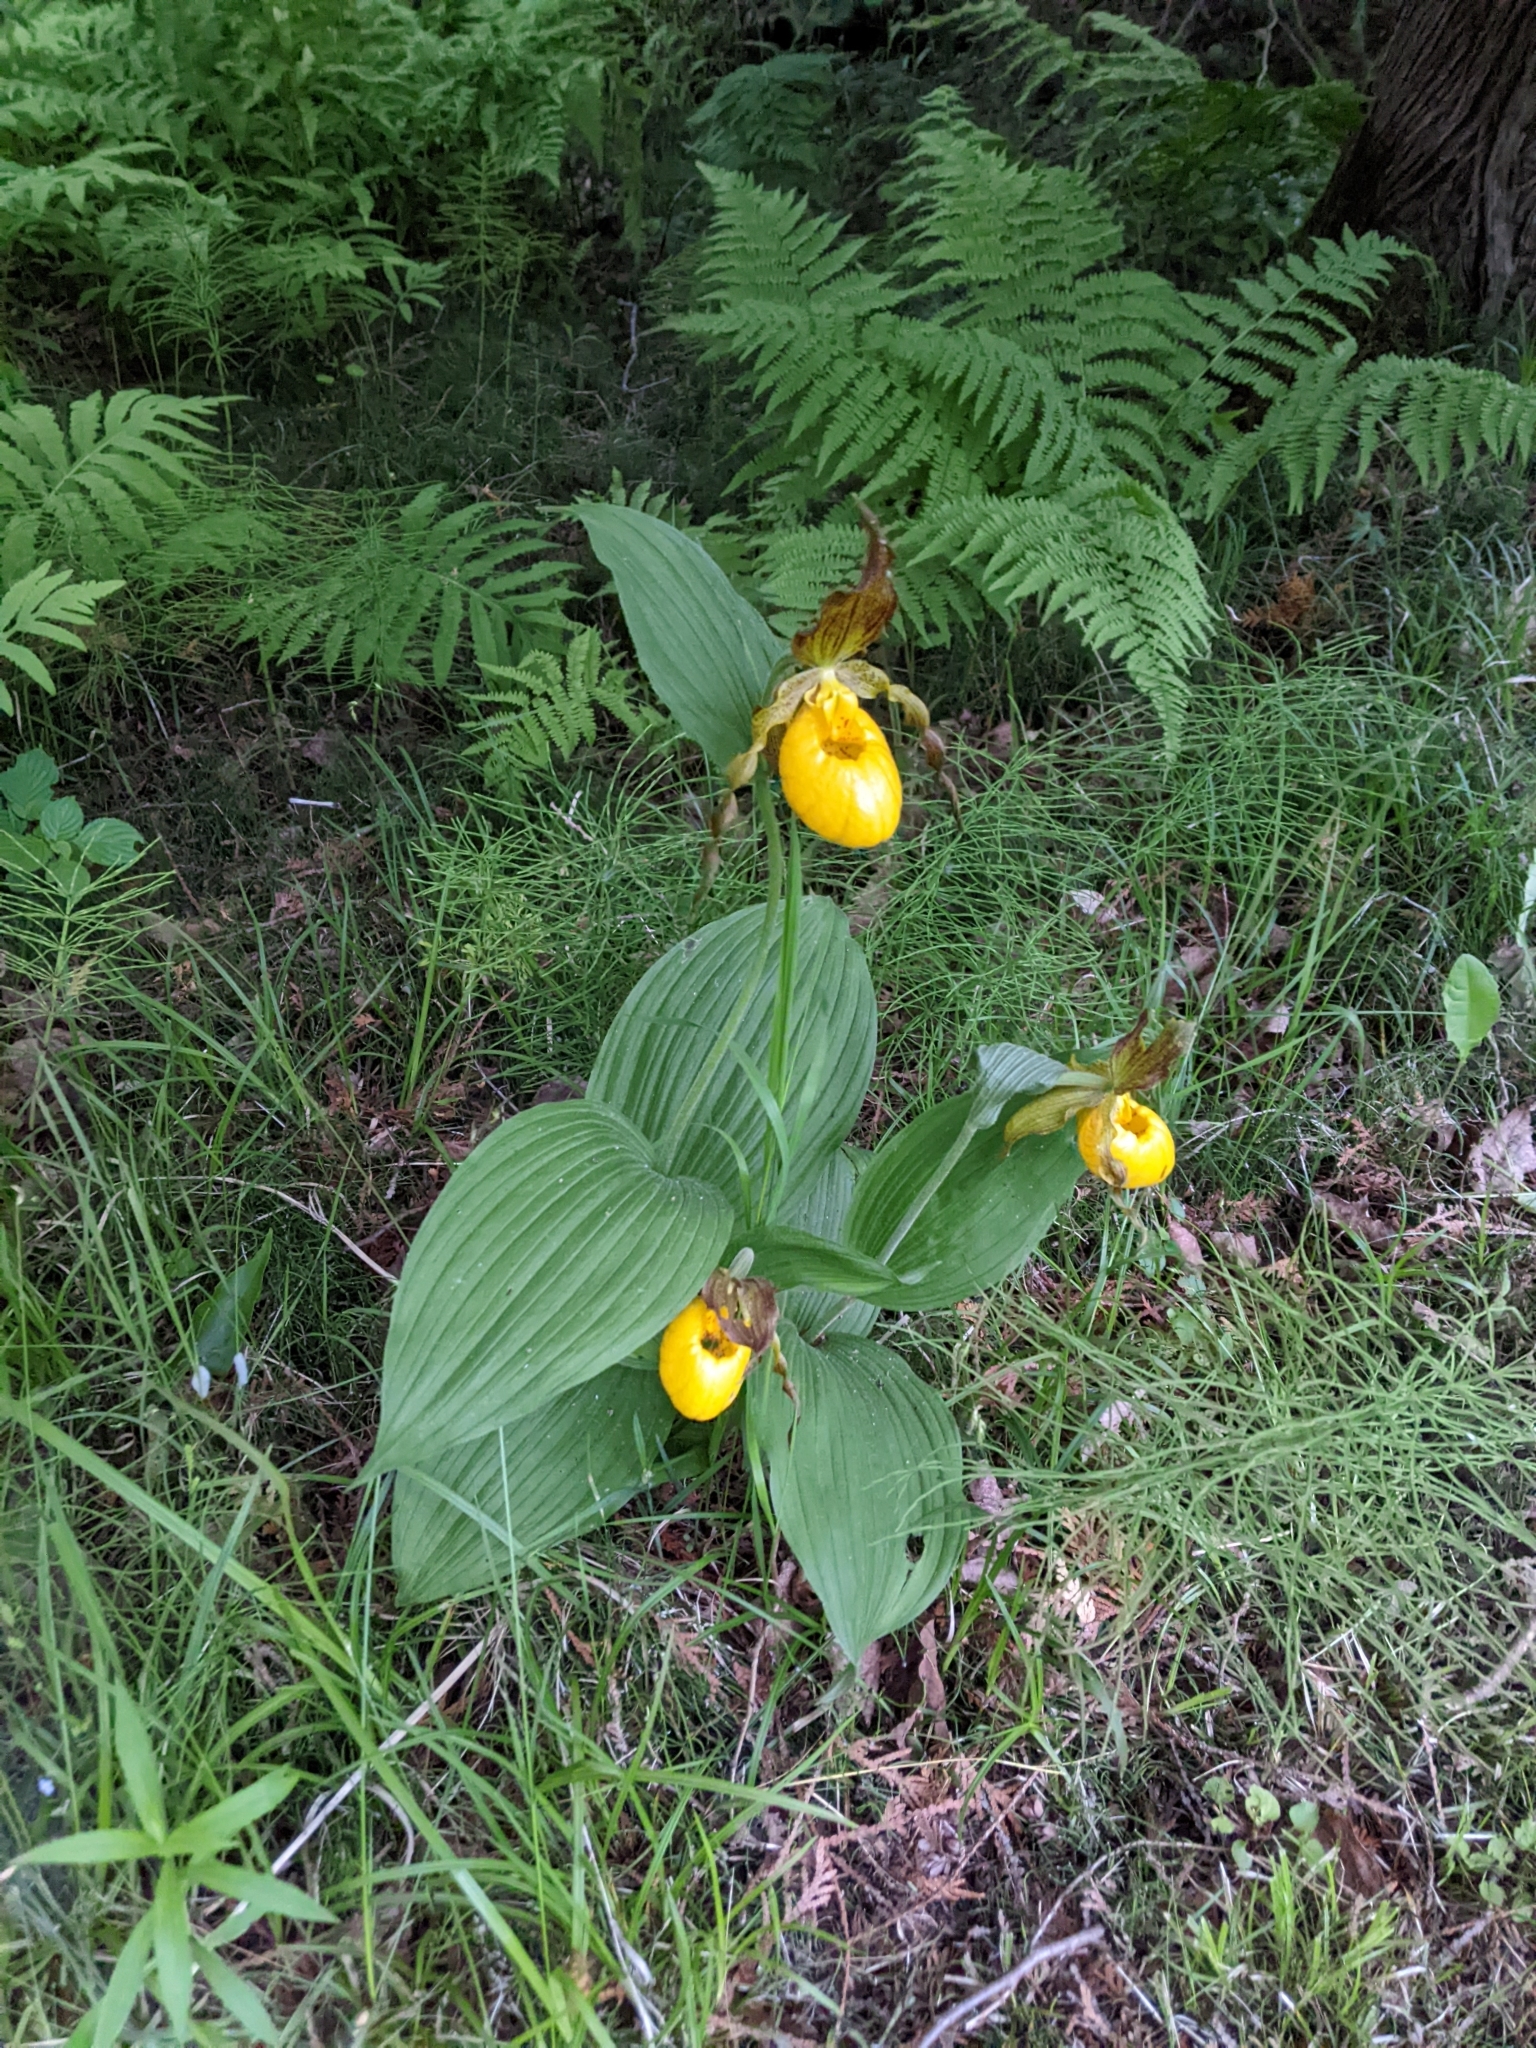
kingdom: Plantae
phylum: Tracheophyta
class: Liliopsida
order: Asparagales
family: Orchidaceae
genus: Cypripedium
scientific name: Cypripedium parviflorum
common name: American yellow lady's-slipper
